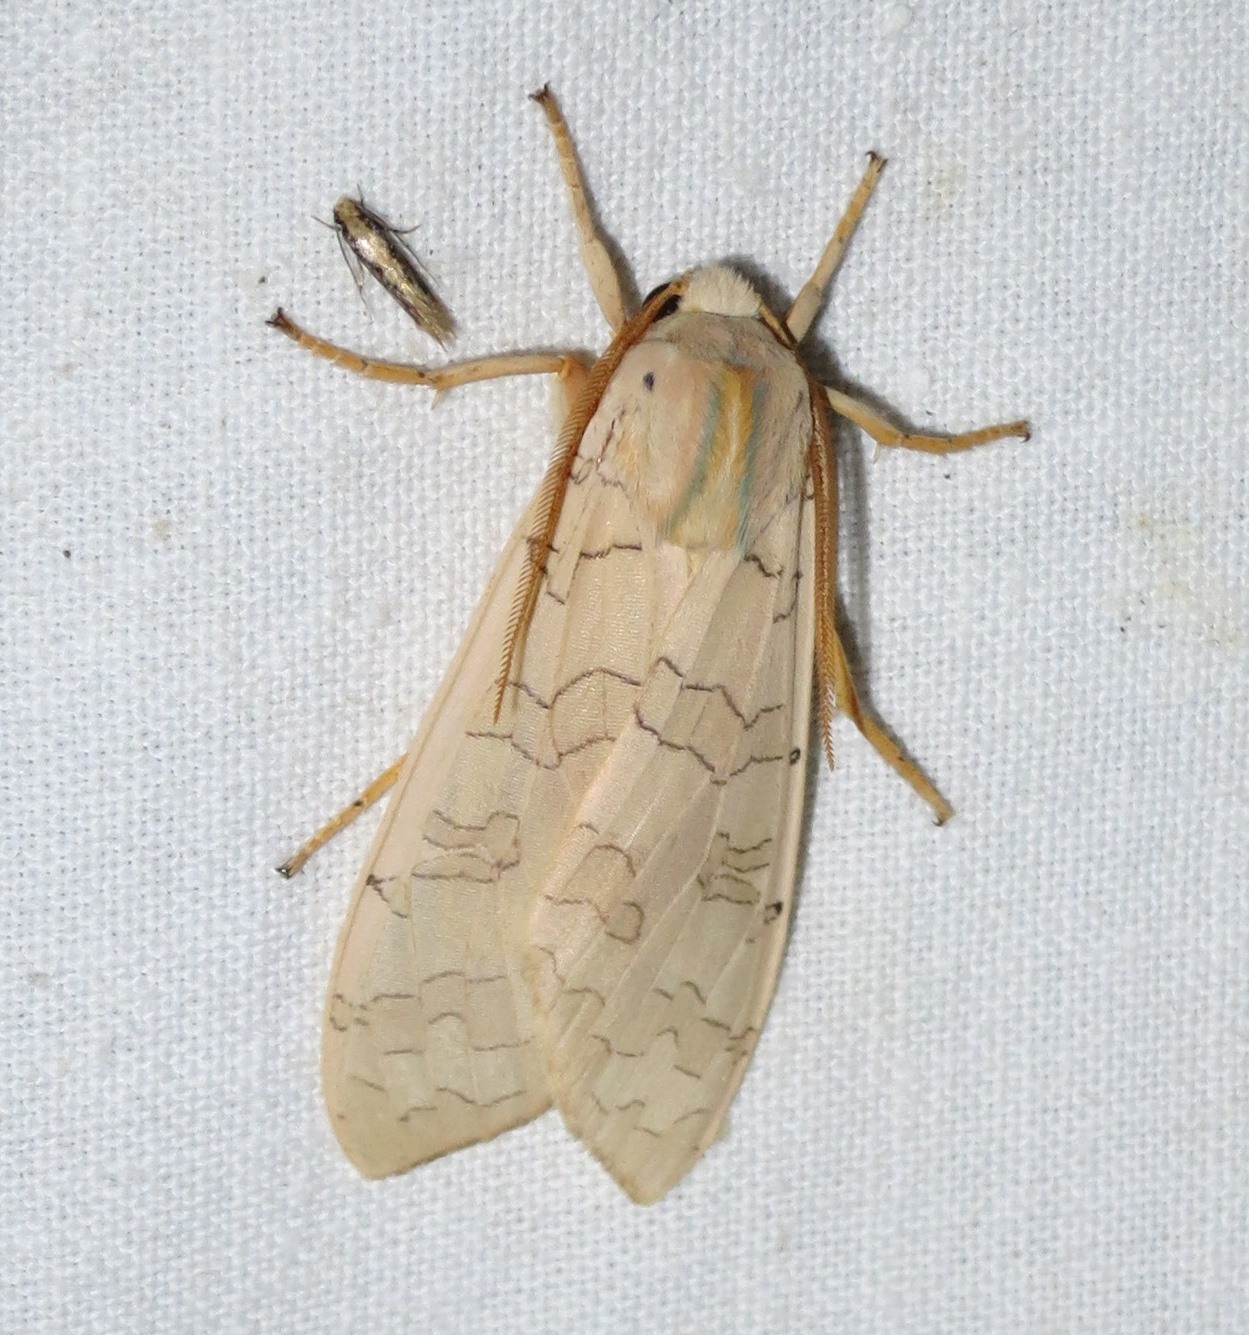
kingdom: Animalia
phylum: Arthropoda
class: Insecta
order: Lepidoptera
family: Erebidae
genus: Halysidota
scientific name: Halysidota tessellaris
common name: Banded tussock moth
